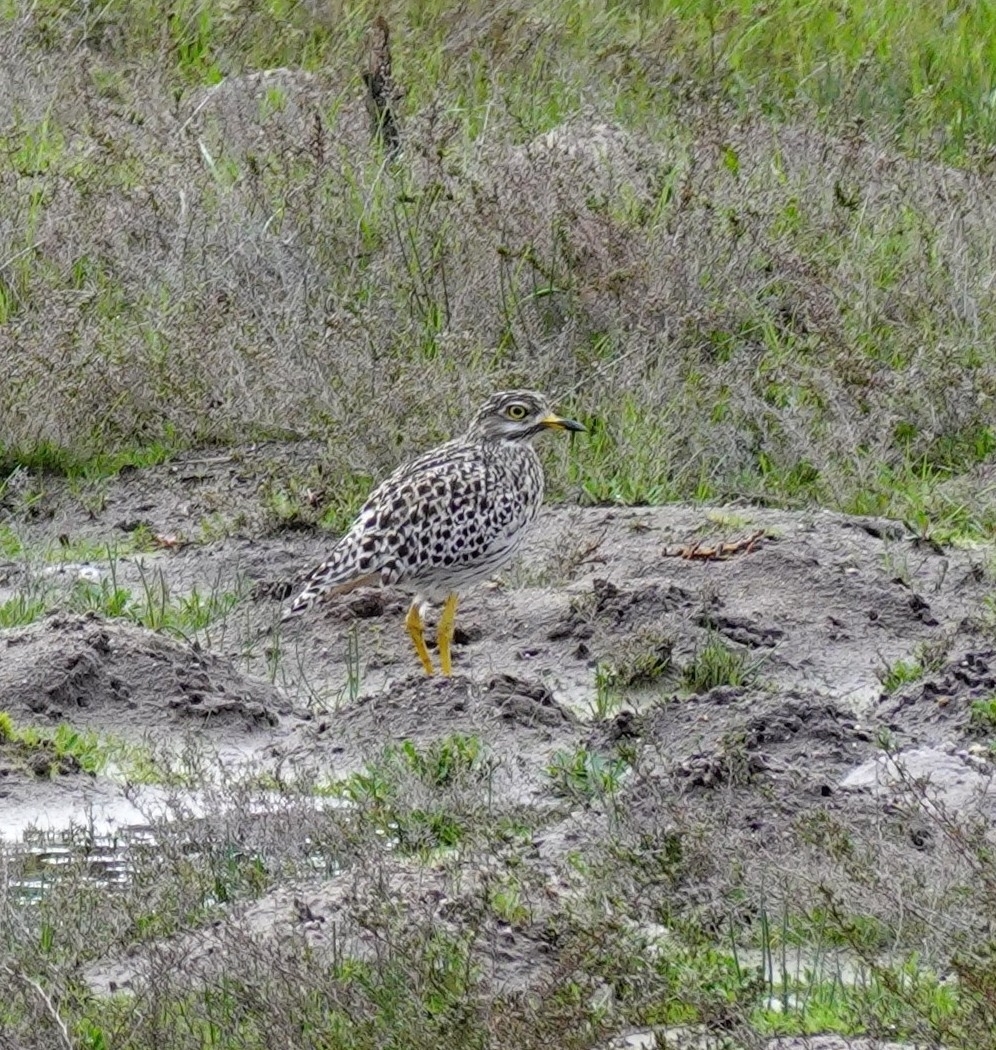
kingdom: Animalia
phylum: Chordata
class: Aves
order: Charadriiformes
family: Burhinidae
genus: Burhinus
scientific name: Burhinus capensis
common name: Spotted thick-knee
